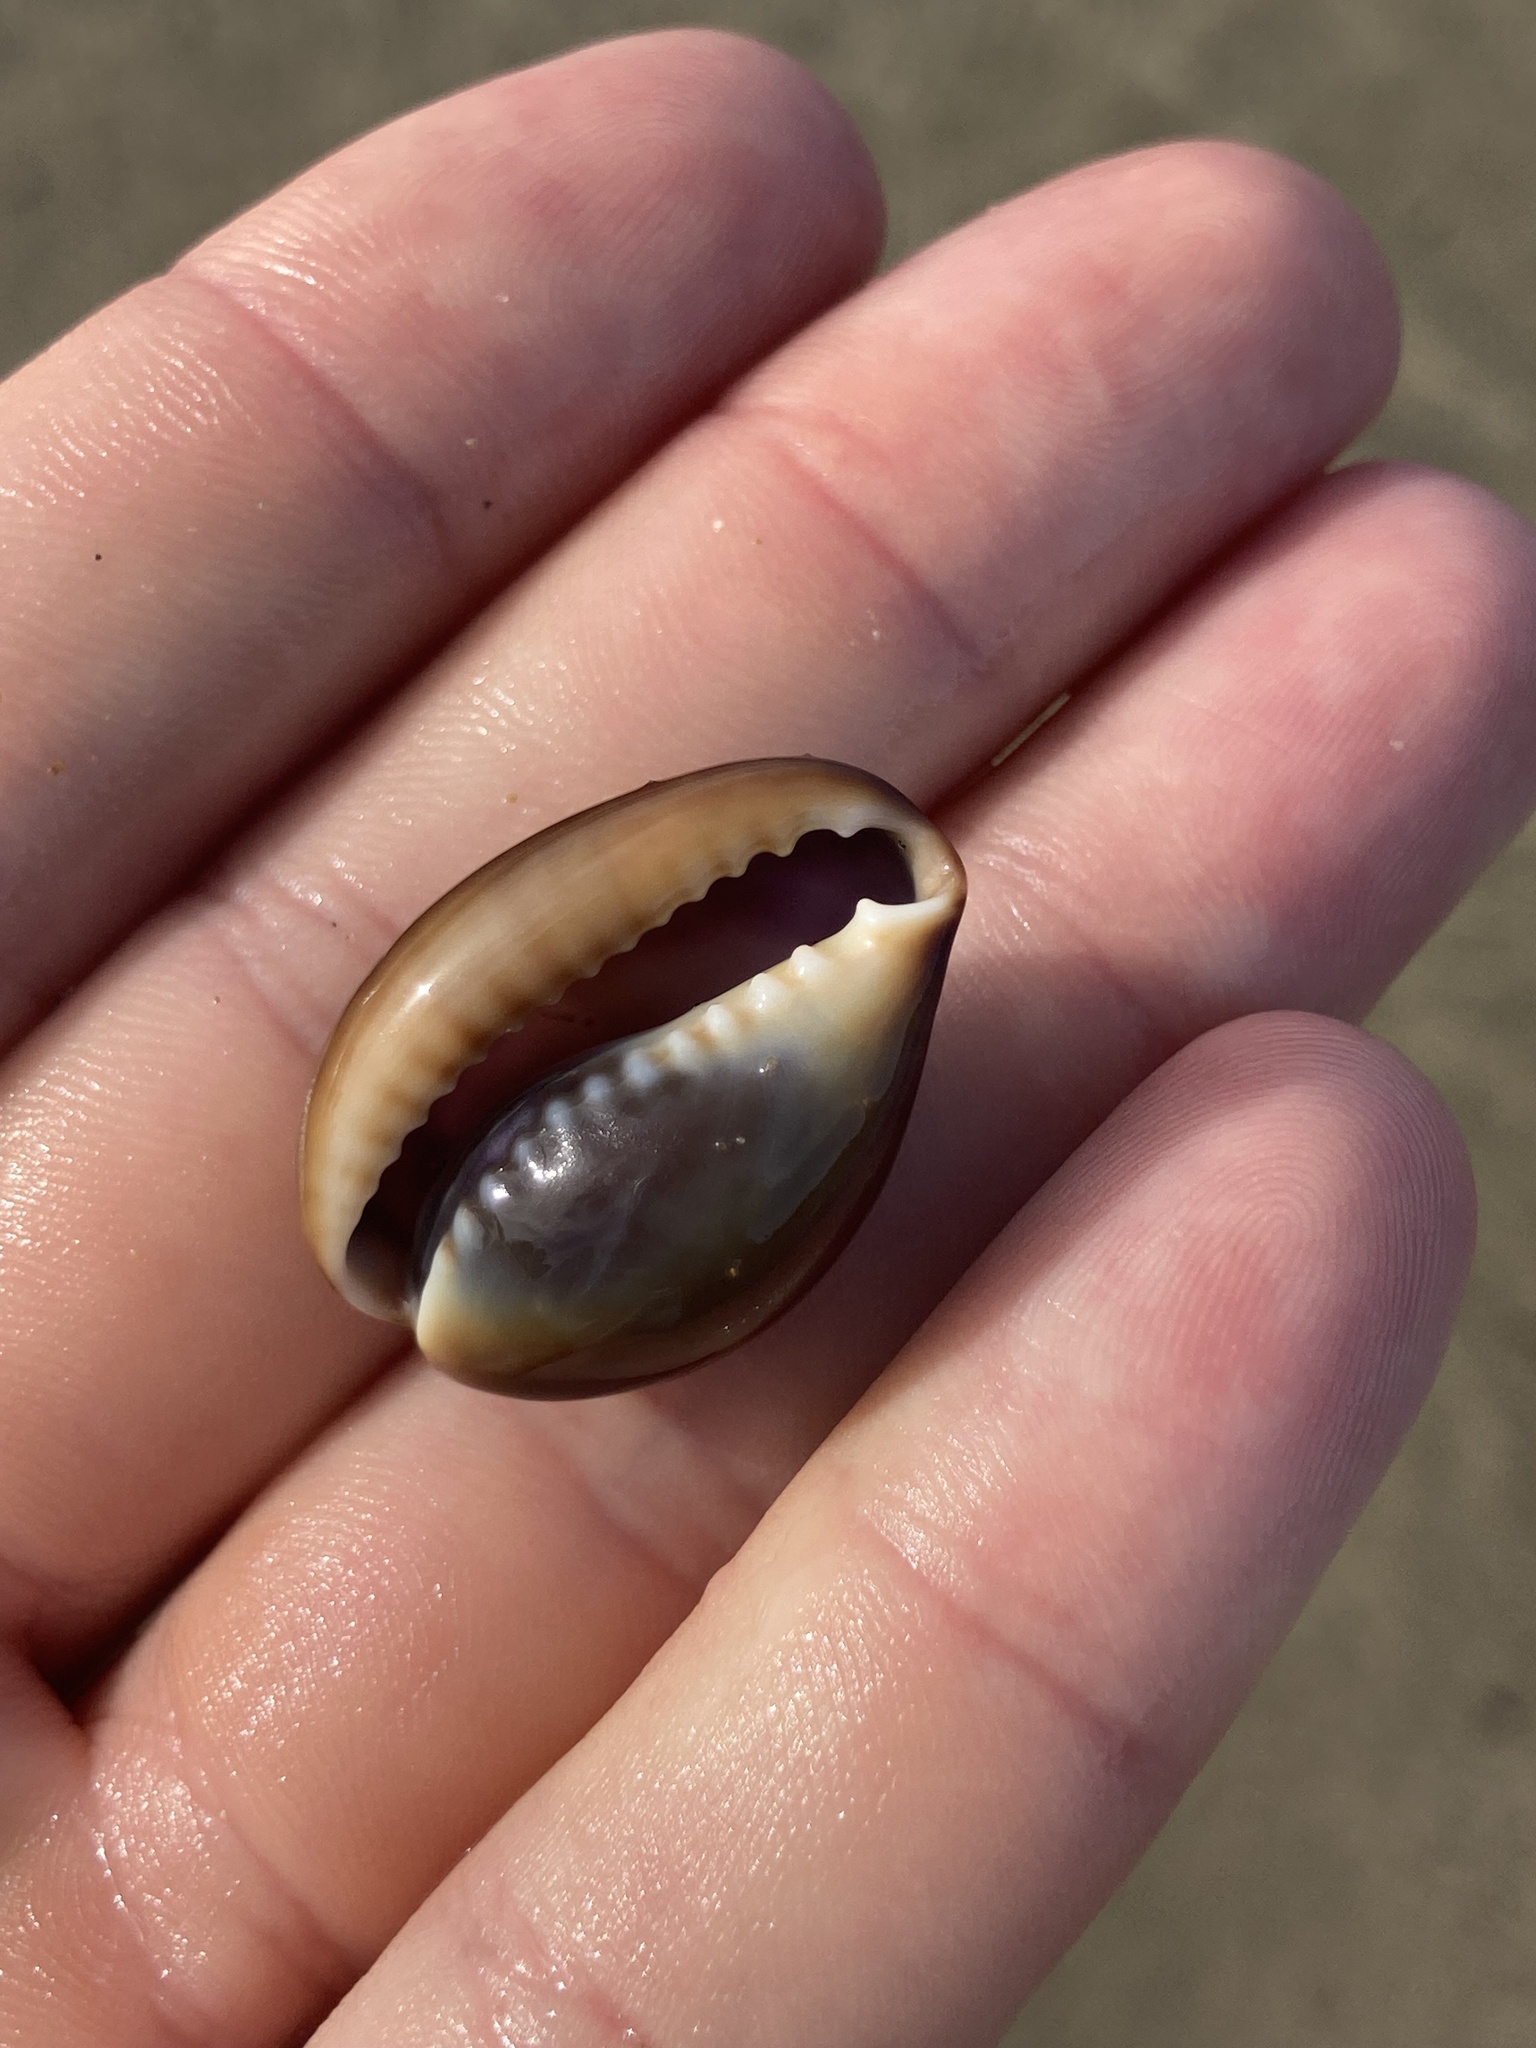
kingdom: Animalia
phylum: Mollusca
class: Gastropoda
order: Littorinimorpha
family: Cypraeidae
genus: Monetaria
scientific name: Monetaria caputserpentis
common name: Serpent's head cowrie
